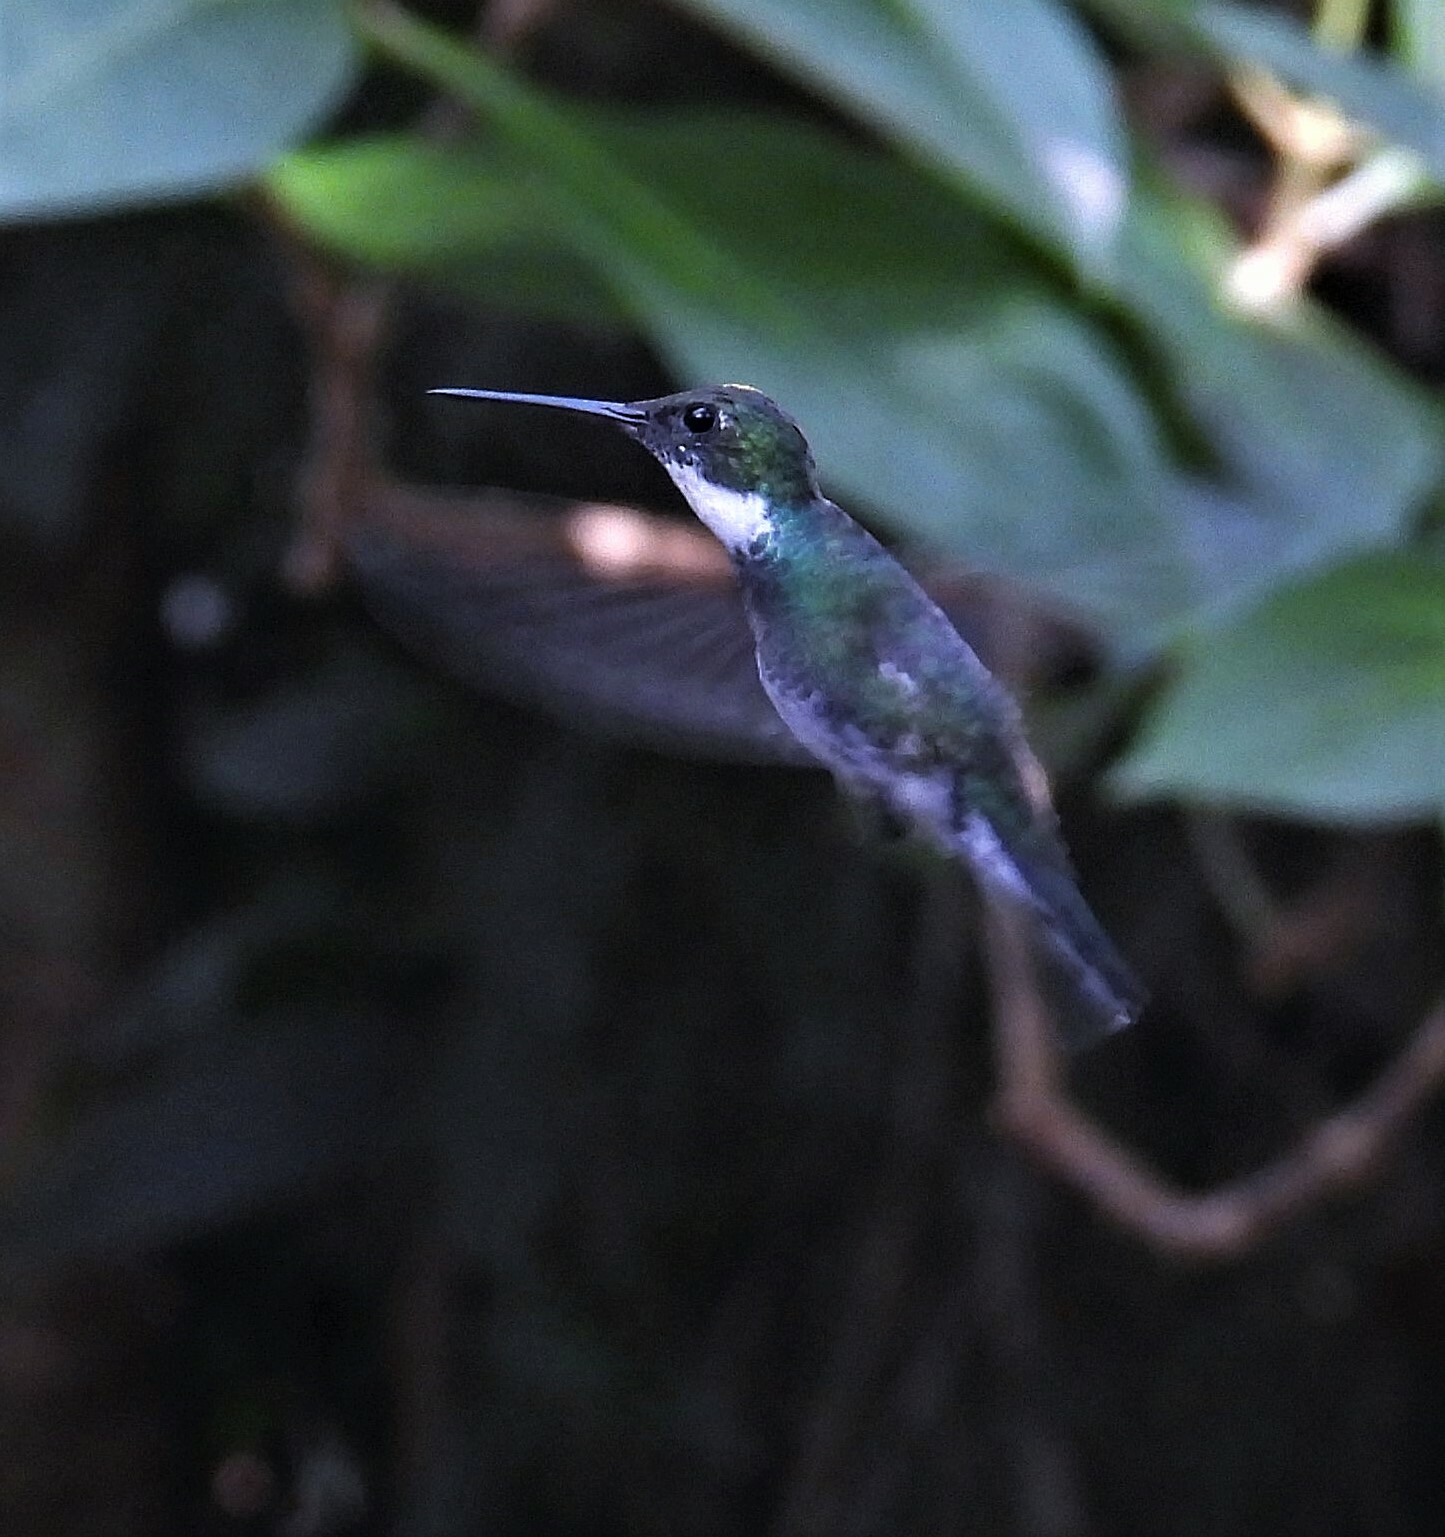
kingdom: Animalia
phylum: Chordata
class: Aves
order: Apodiformes
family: Trochilidae
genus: Leucochloris
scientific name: Leucochloris albicollis
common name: White-throated hummingbird
